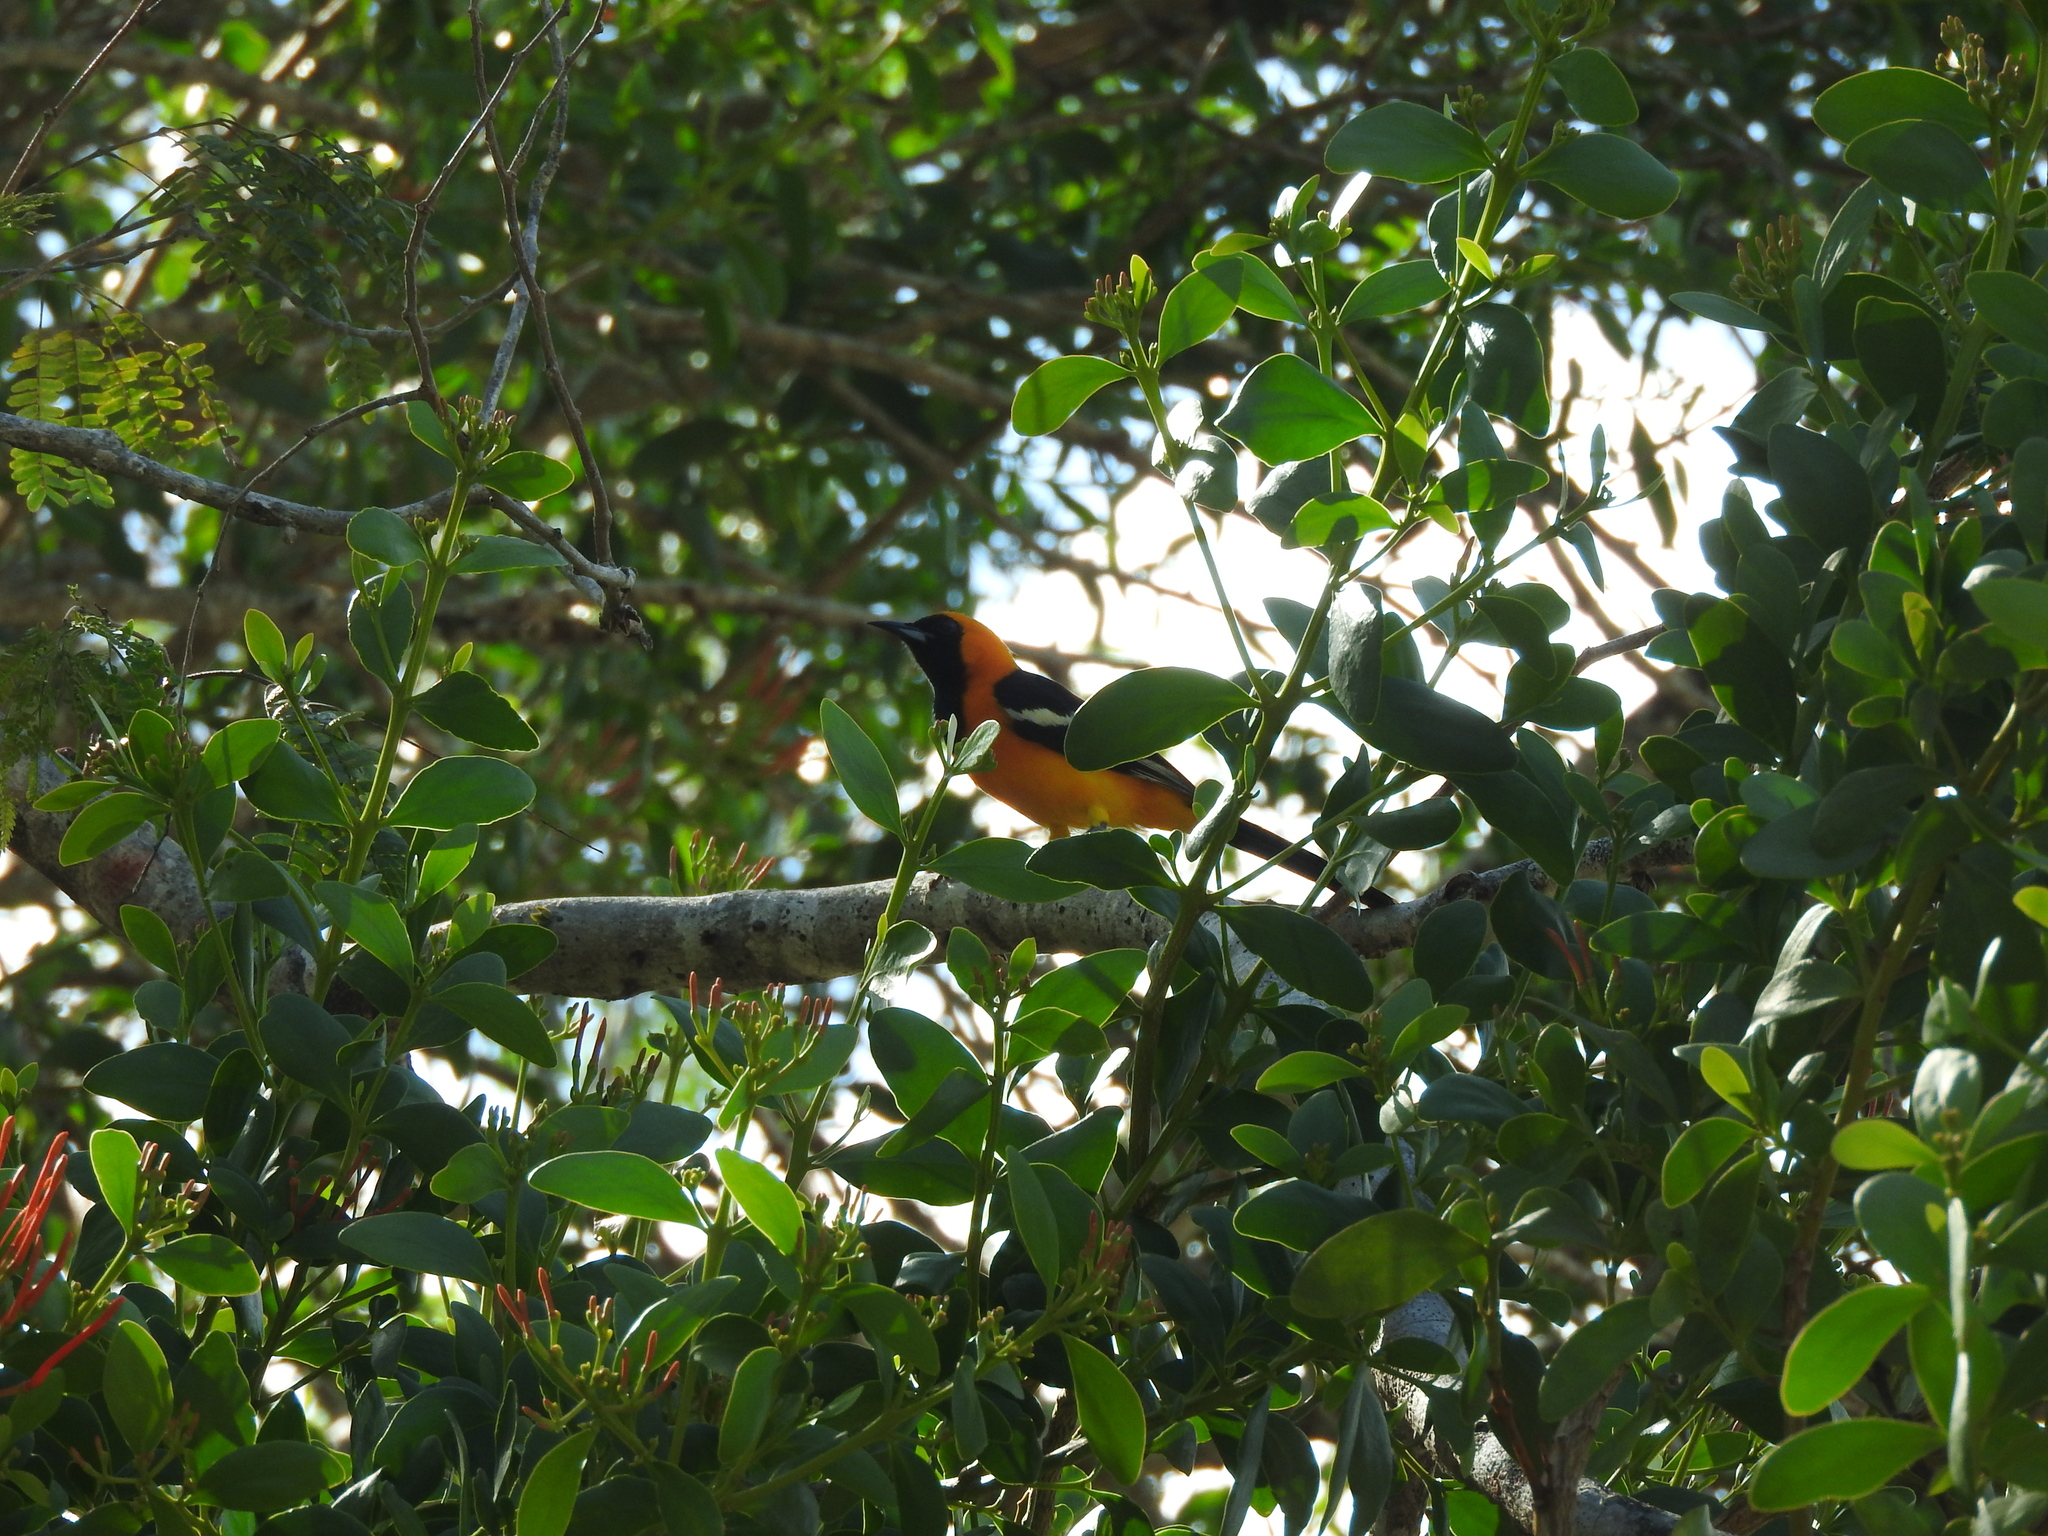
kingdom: Animalia
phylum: Chordata
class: Aves
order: Passeriformes
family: Icteridae
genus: Icterus
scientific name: Icterus cucullatus
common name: Hooded oriole
